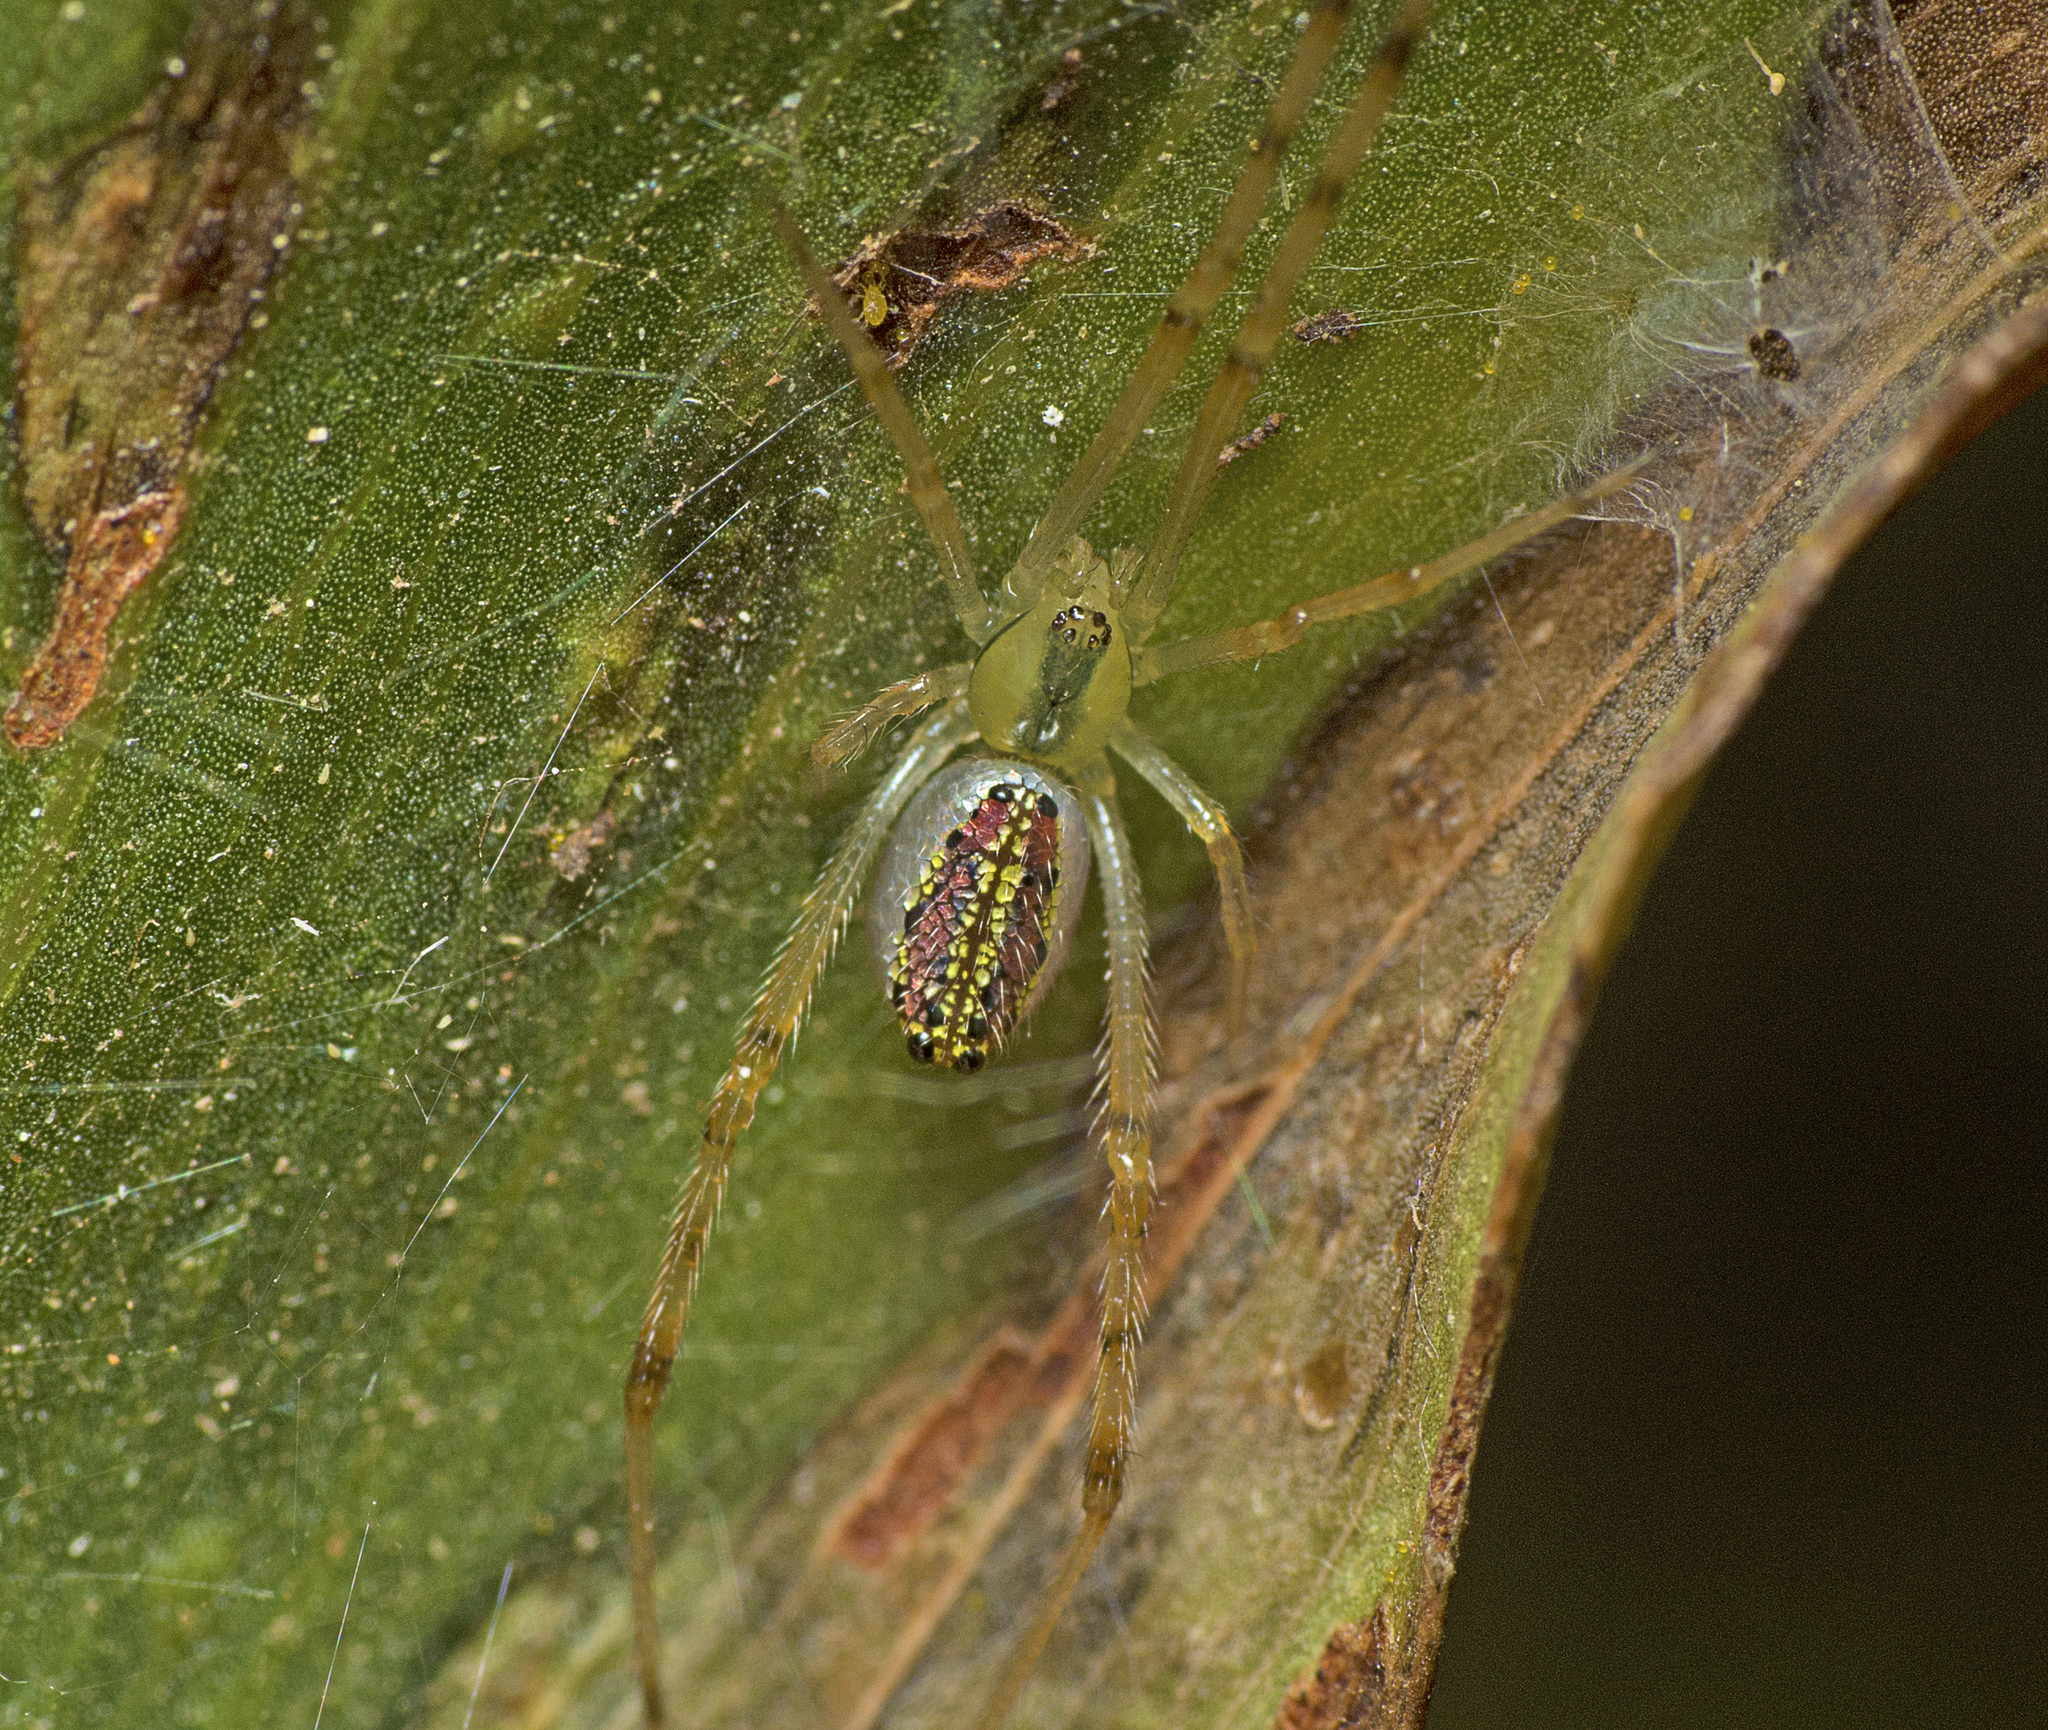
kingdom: Animalia
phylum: Arthropoda
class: Arachnida
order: Araneae
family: Theridiidae
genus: Thwaitesia
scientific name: Thwaitesia nigronodosa
